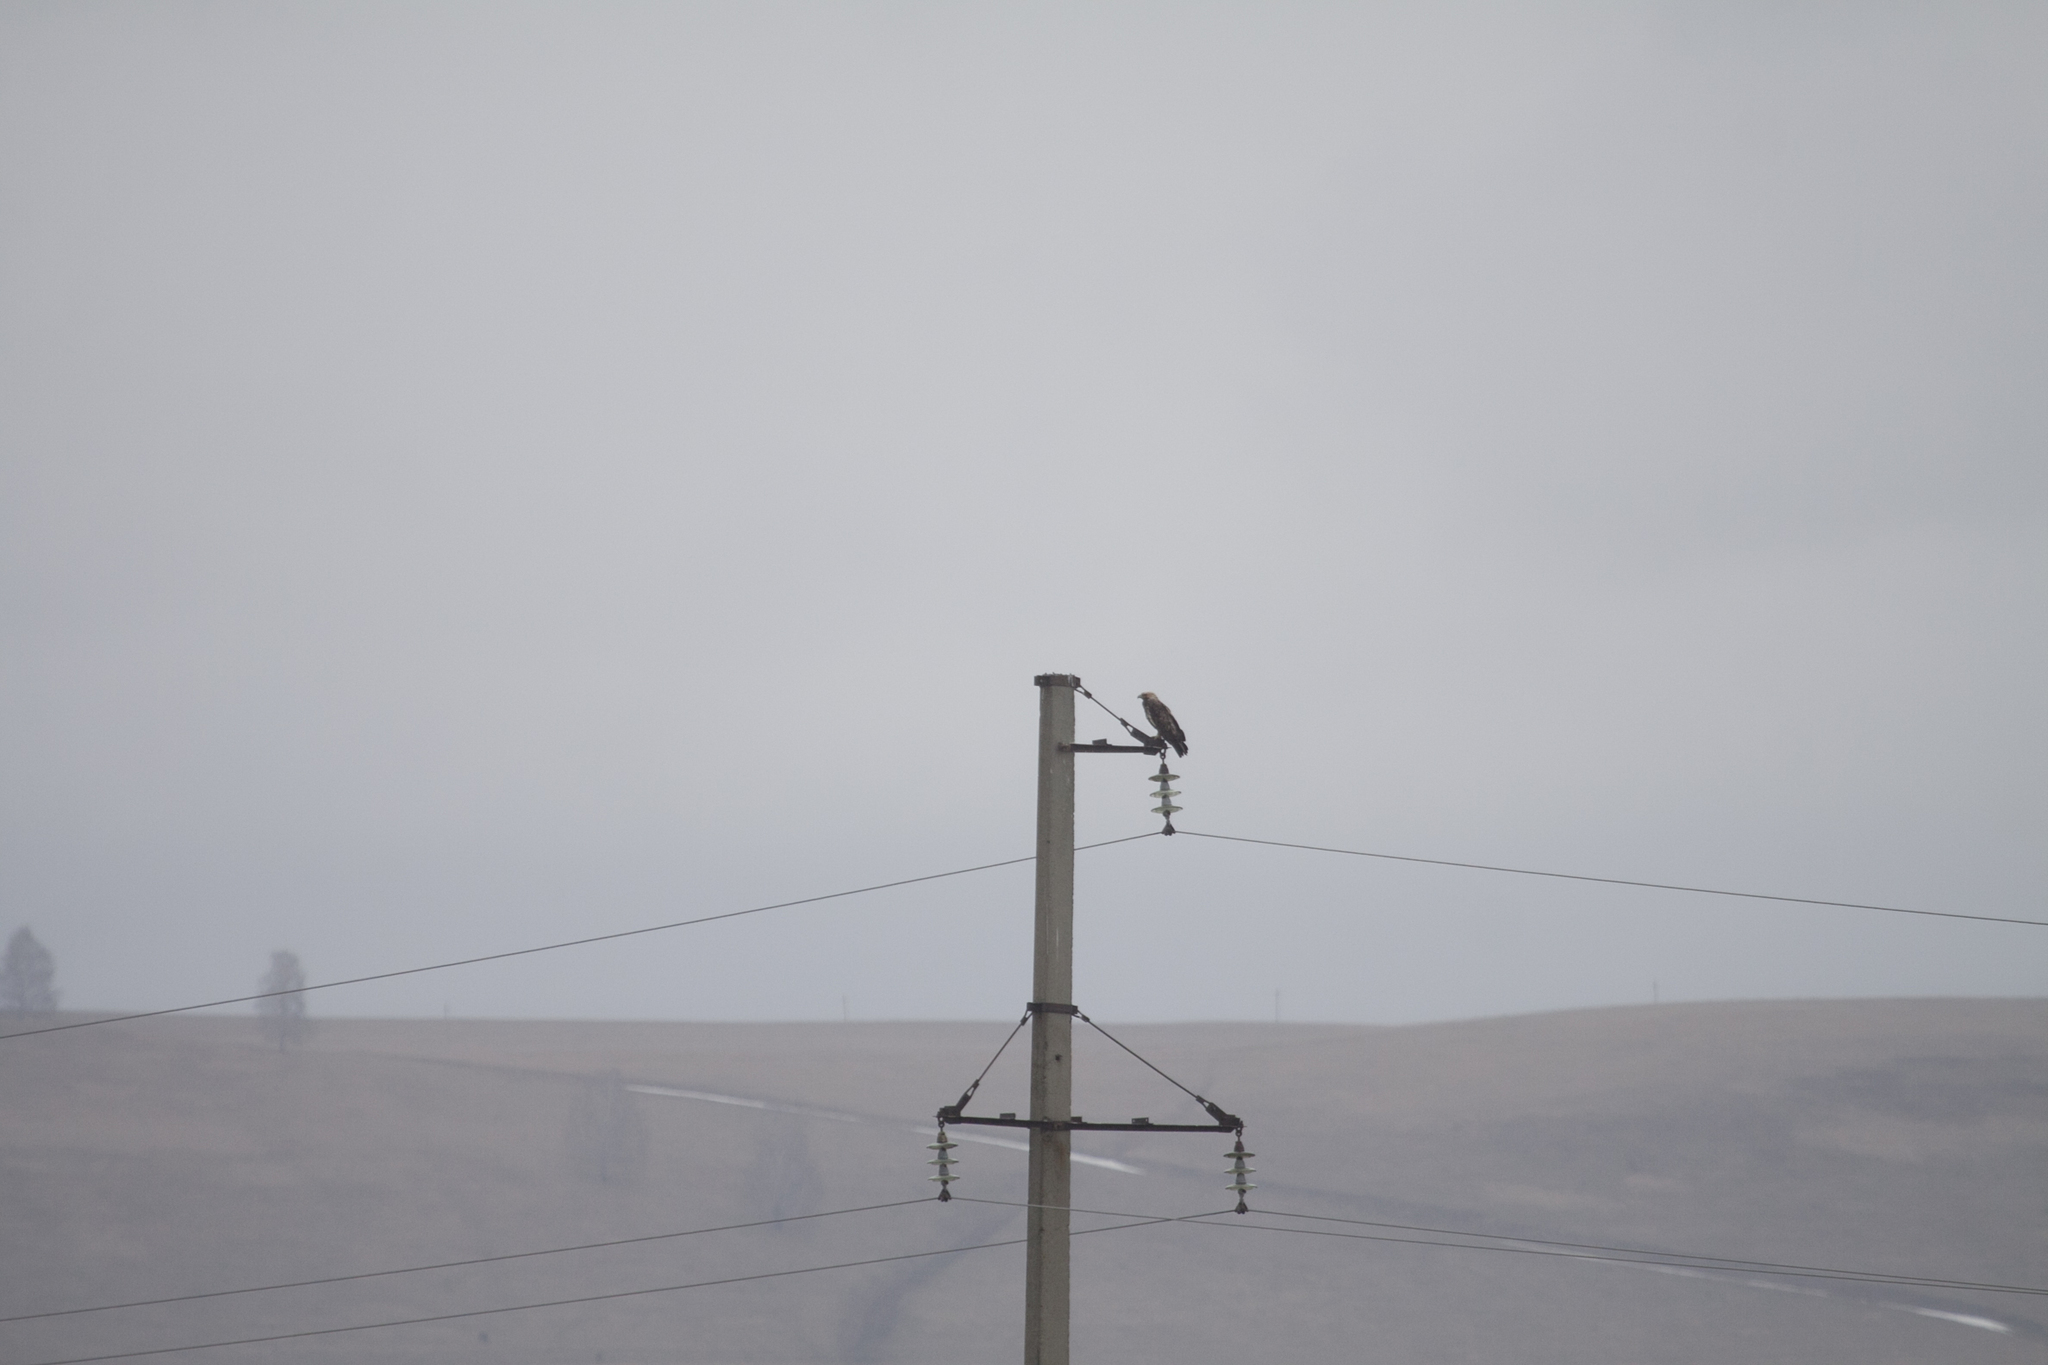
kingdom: Animalia
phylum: Chordata
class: Aves
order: Accipitriformes
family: Accipitridae
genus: Aquila
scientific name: Aquila heliaca
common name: Eastern imperial eagle
